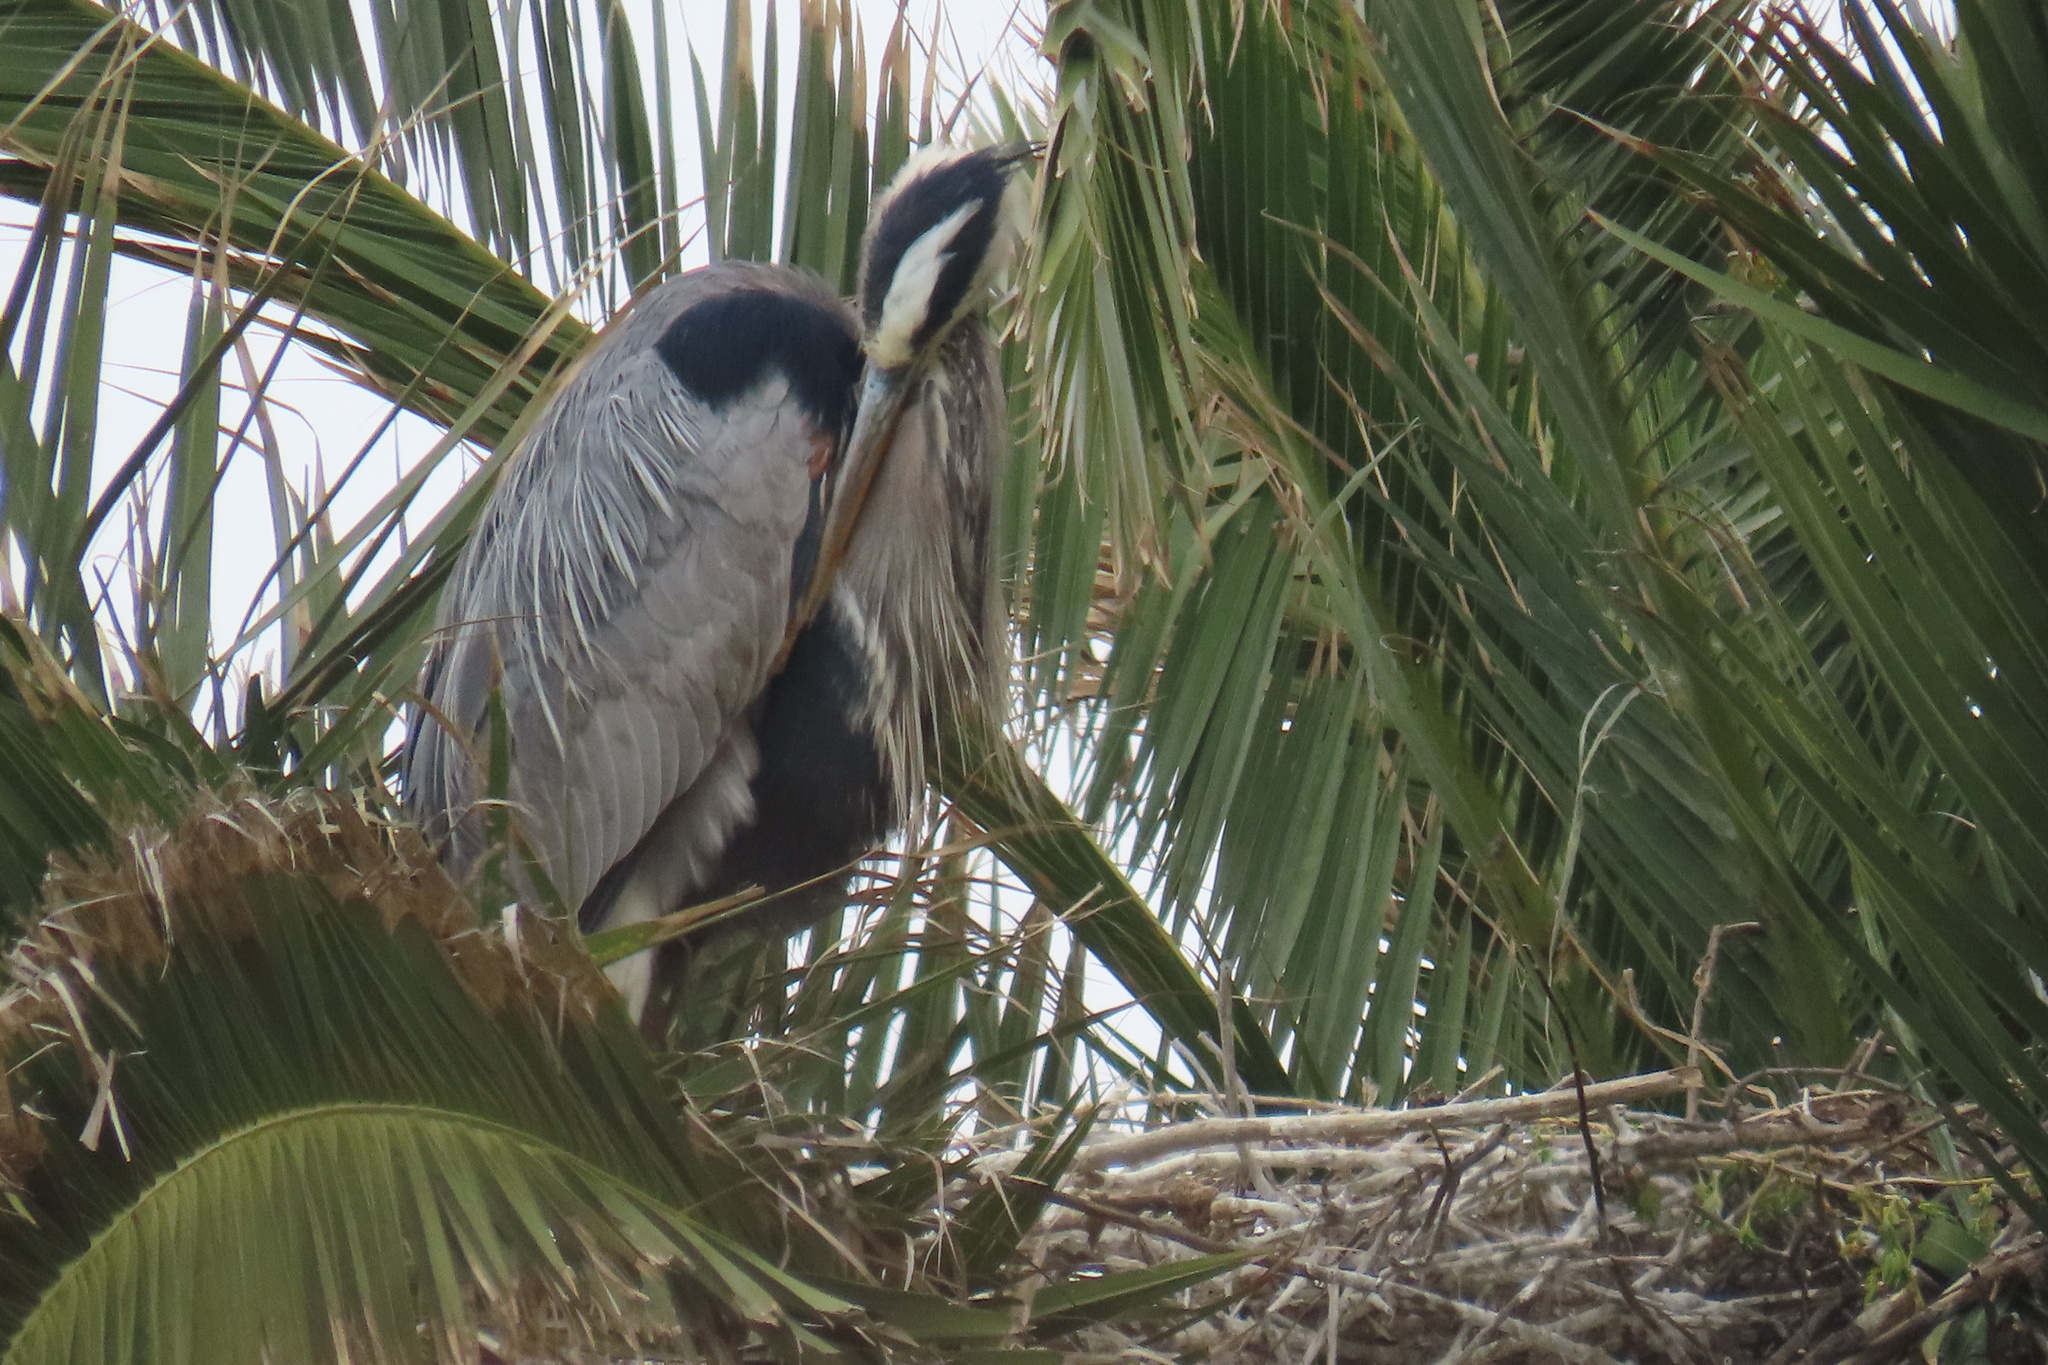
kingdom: Animalia
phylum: Chordata
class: Aves
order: Pelecaniformes
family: Ardeidae
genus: Ardea
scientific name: Ardea herodias
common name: Great blue heron
